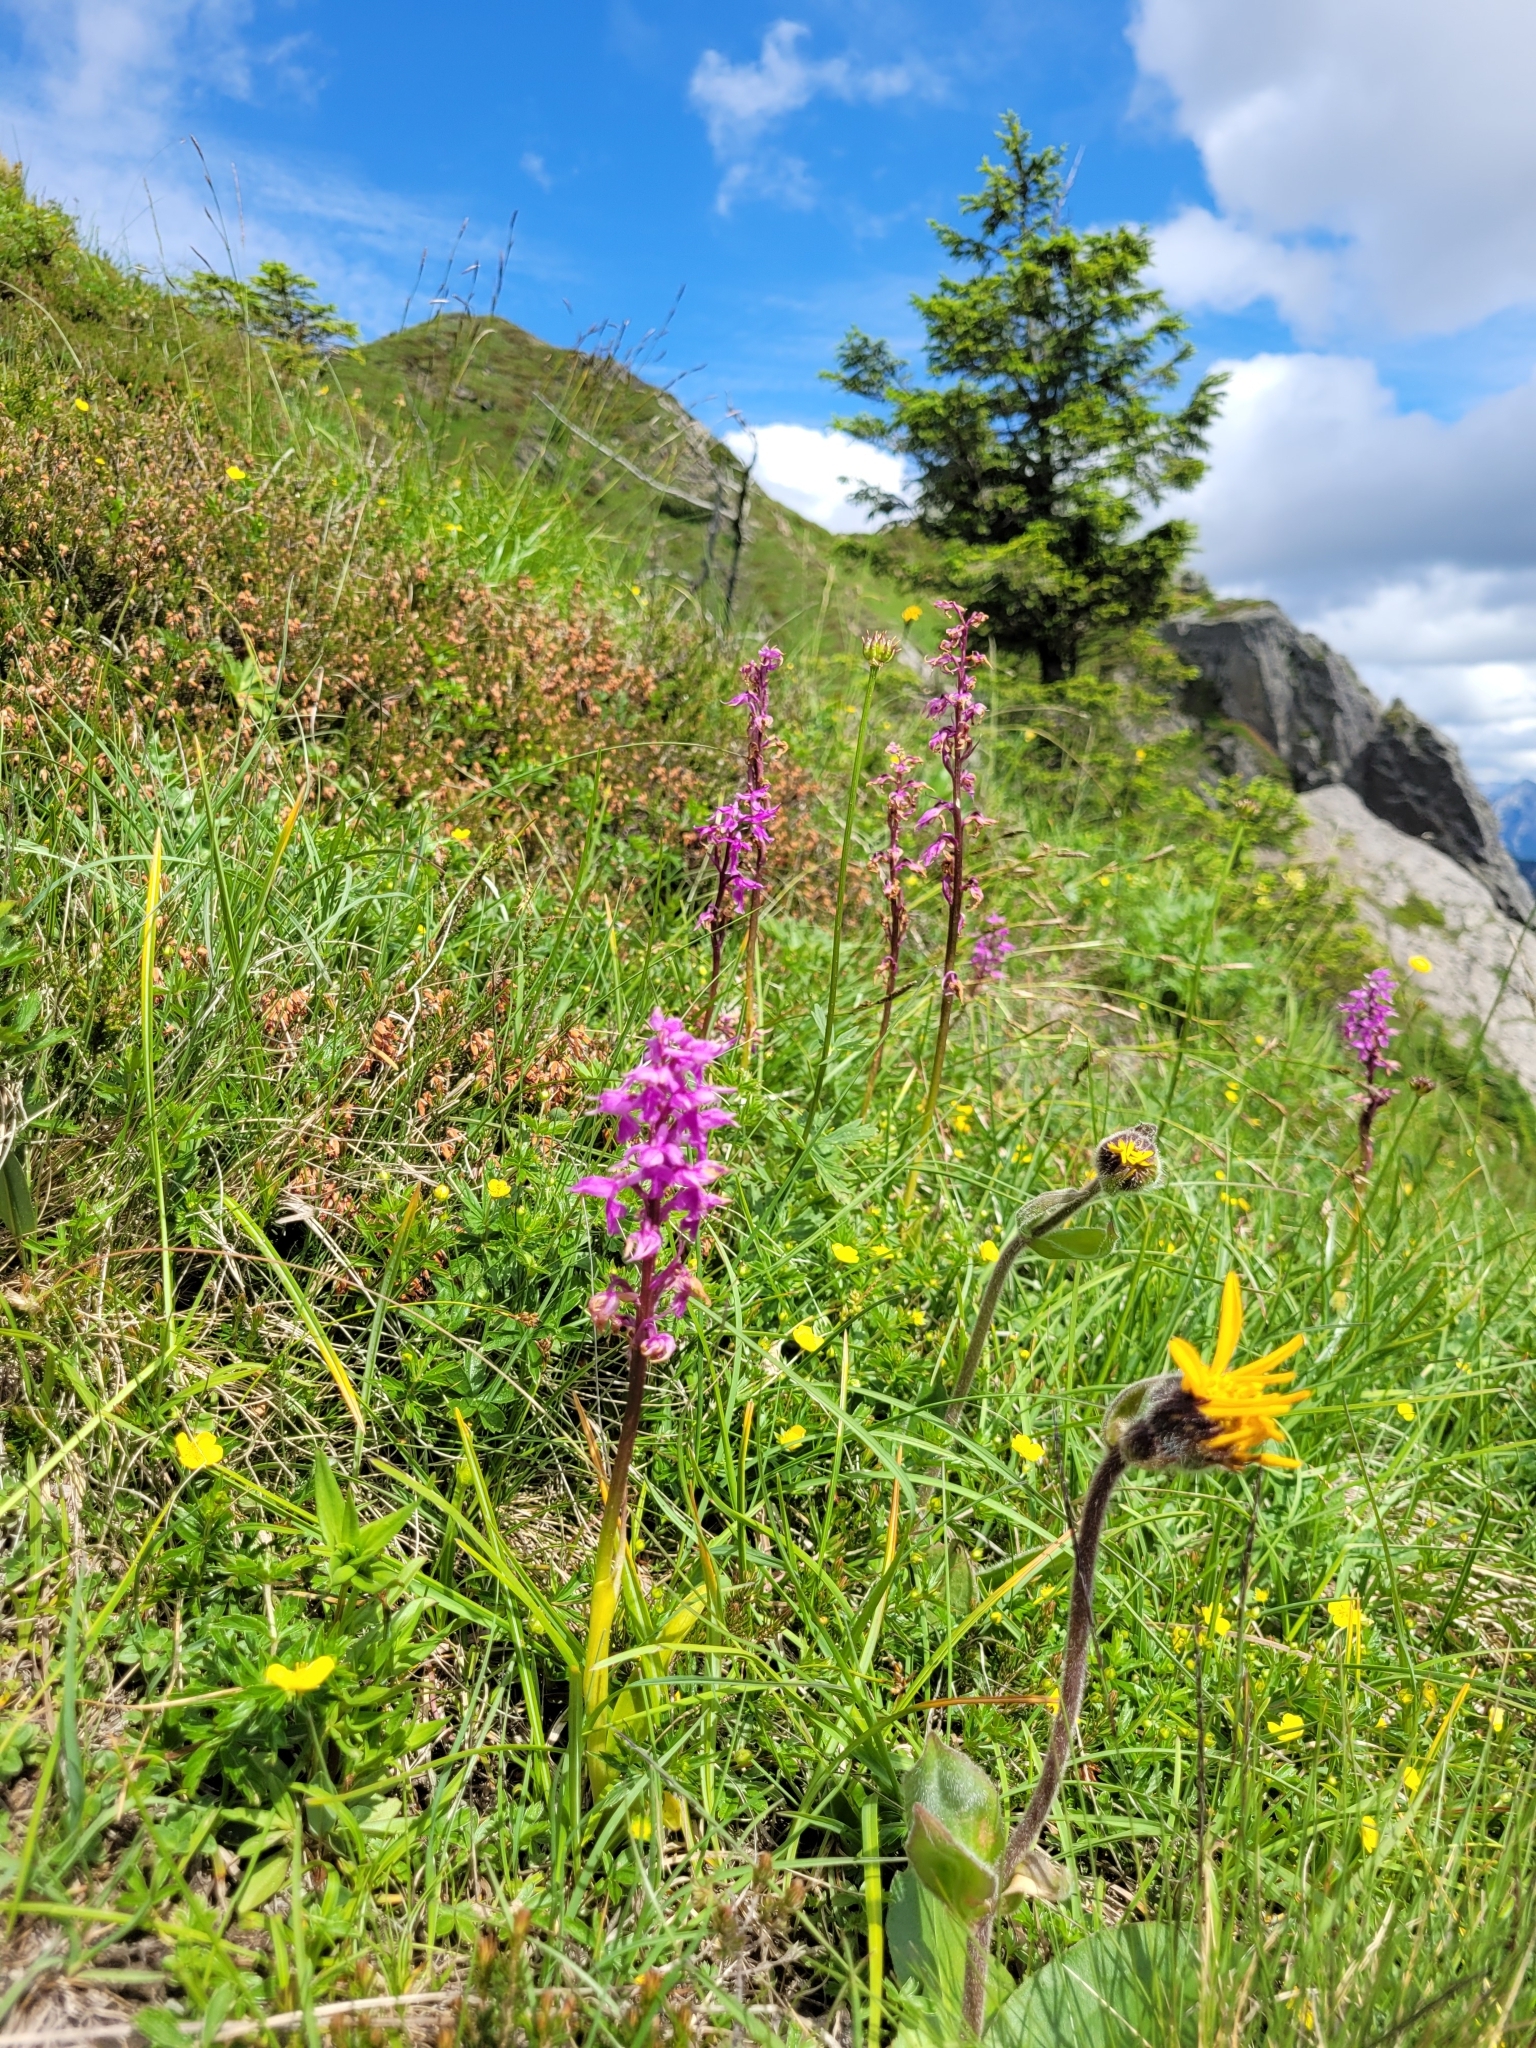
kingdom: Plantae
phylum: Tracheophyta
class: Liliopsida
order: Asparagales
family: Orchidaceae
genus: Orchis
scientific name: Orchis mascula
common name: Early-purple orchid
